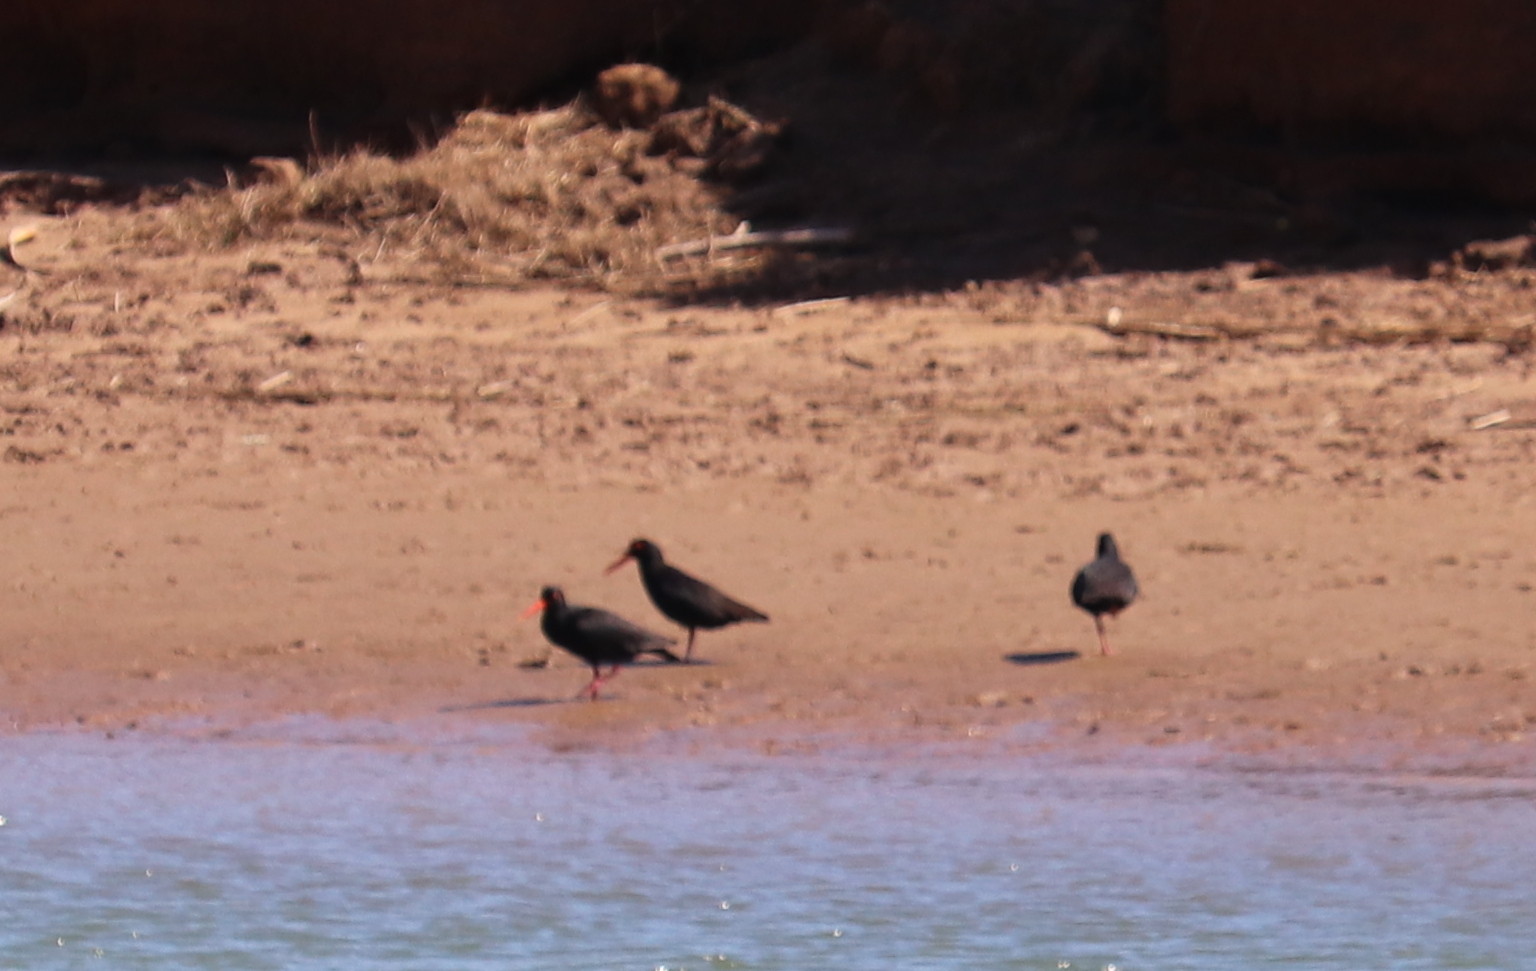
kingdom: Animalia
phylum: Chordata
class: Aves
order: Charadriiformes
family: Haematopodidae
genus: Haematopus
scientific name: Haematopus moquini
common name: African oystercatcher
